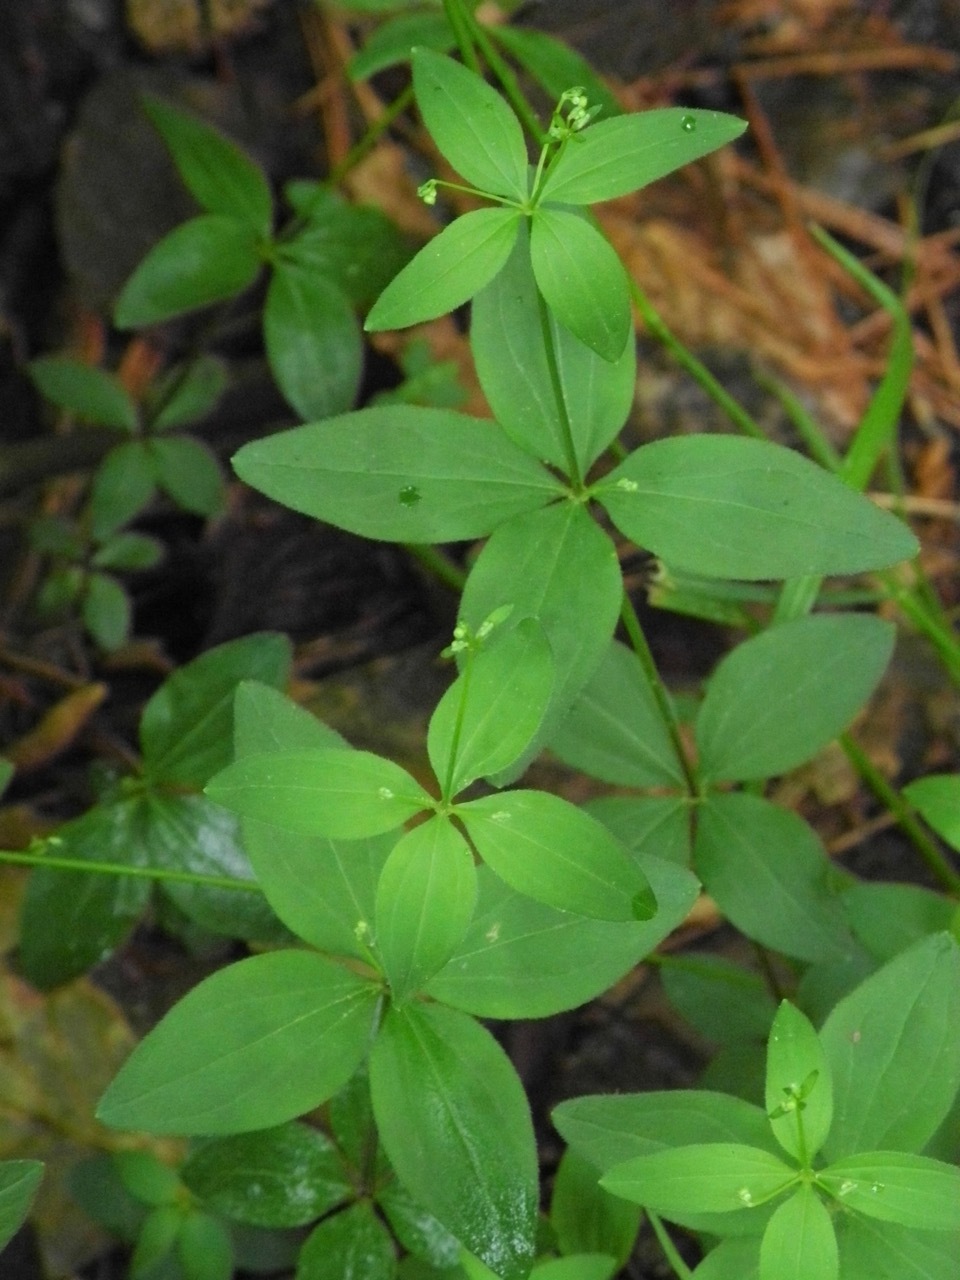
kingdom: Plantae
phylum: Tracheophyta
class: Magnoliopsida
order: Gentianales
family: Rubiaceae
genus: Galium
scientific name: Galium circaezans
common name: Forest bedstraw
